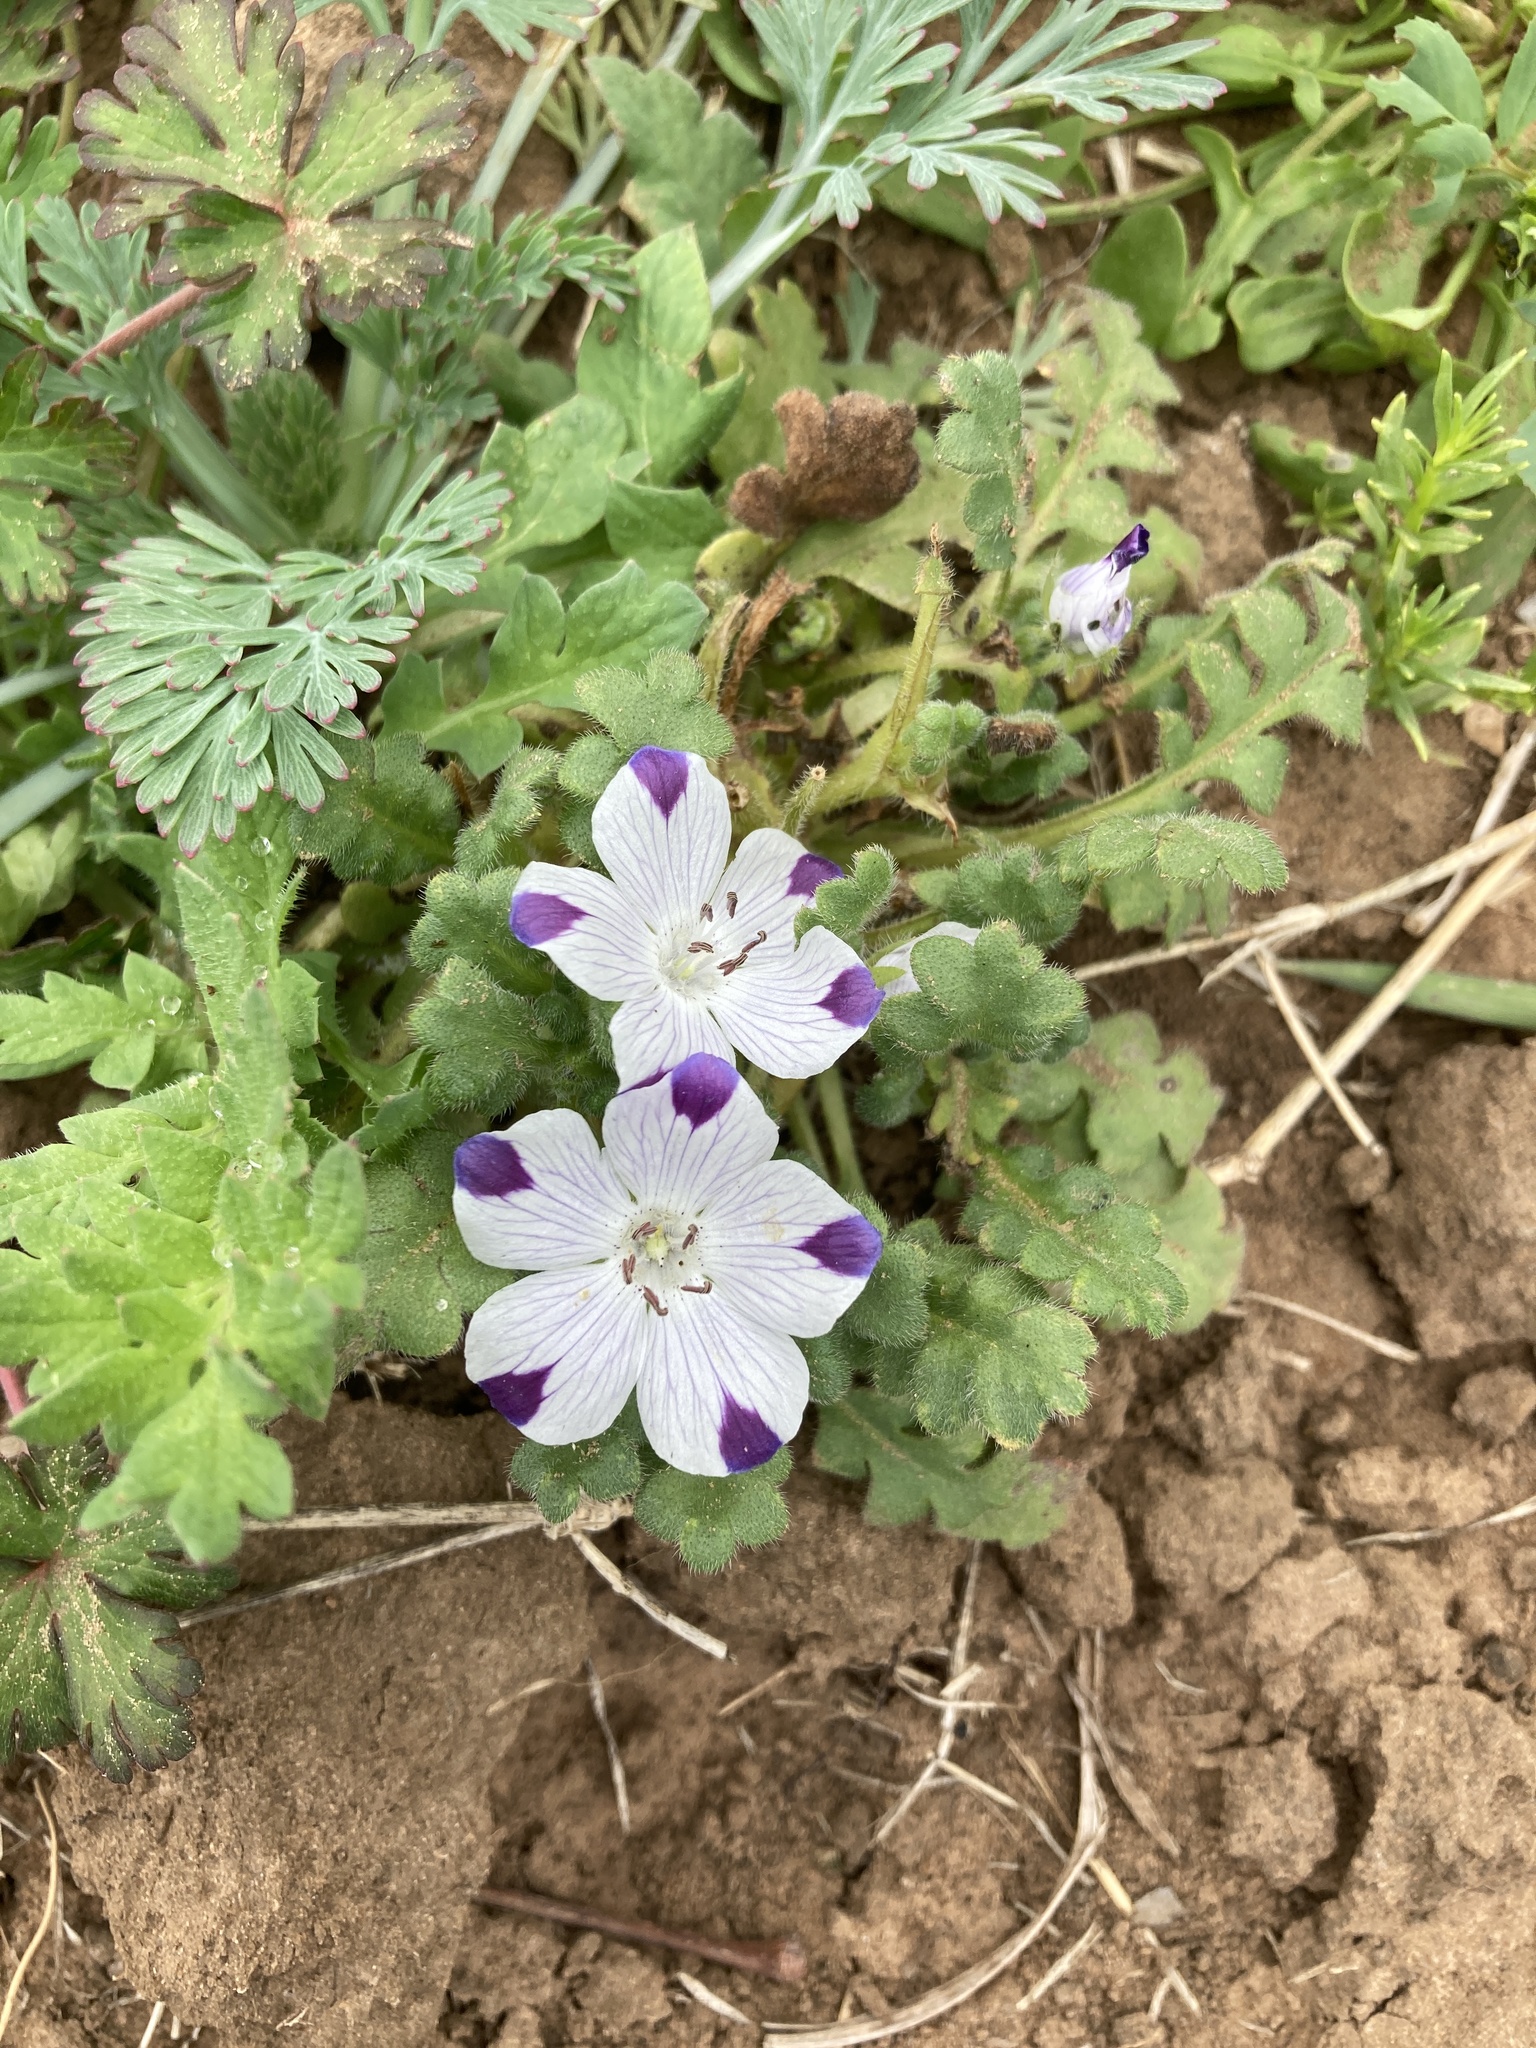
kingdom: Plantae
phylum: Tracheophyta
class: Magnoliopsida
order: Boraginales
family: Hydrophyllaceae
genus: Nemophila
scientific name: Nemophila maculata
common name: Fivespot
